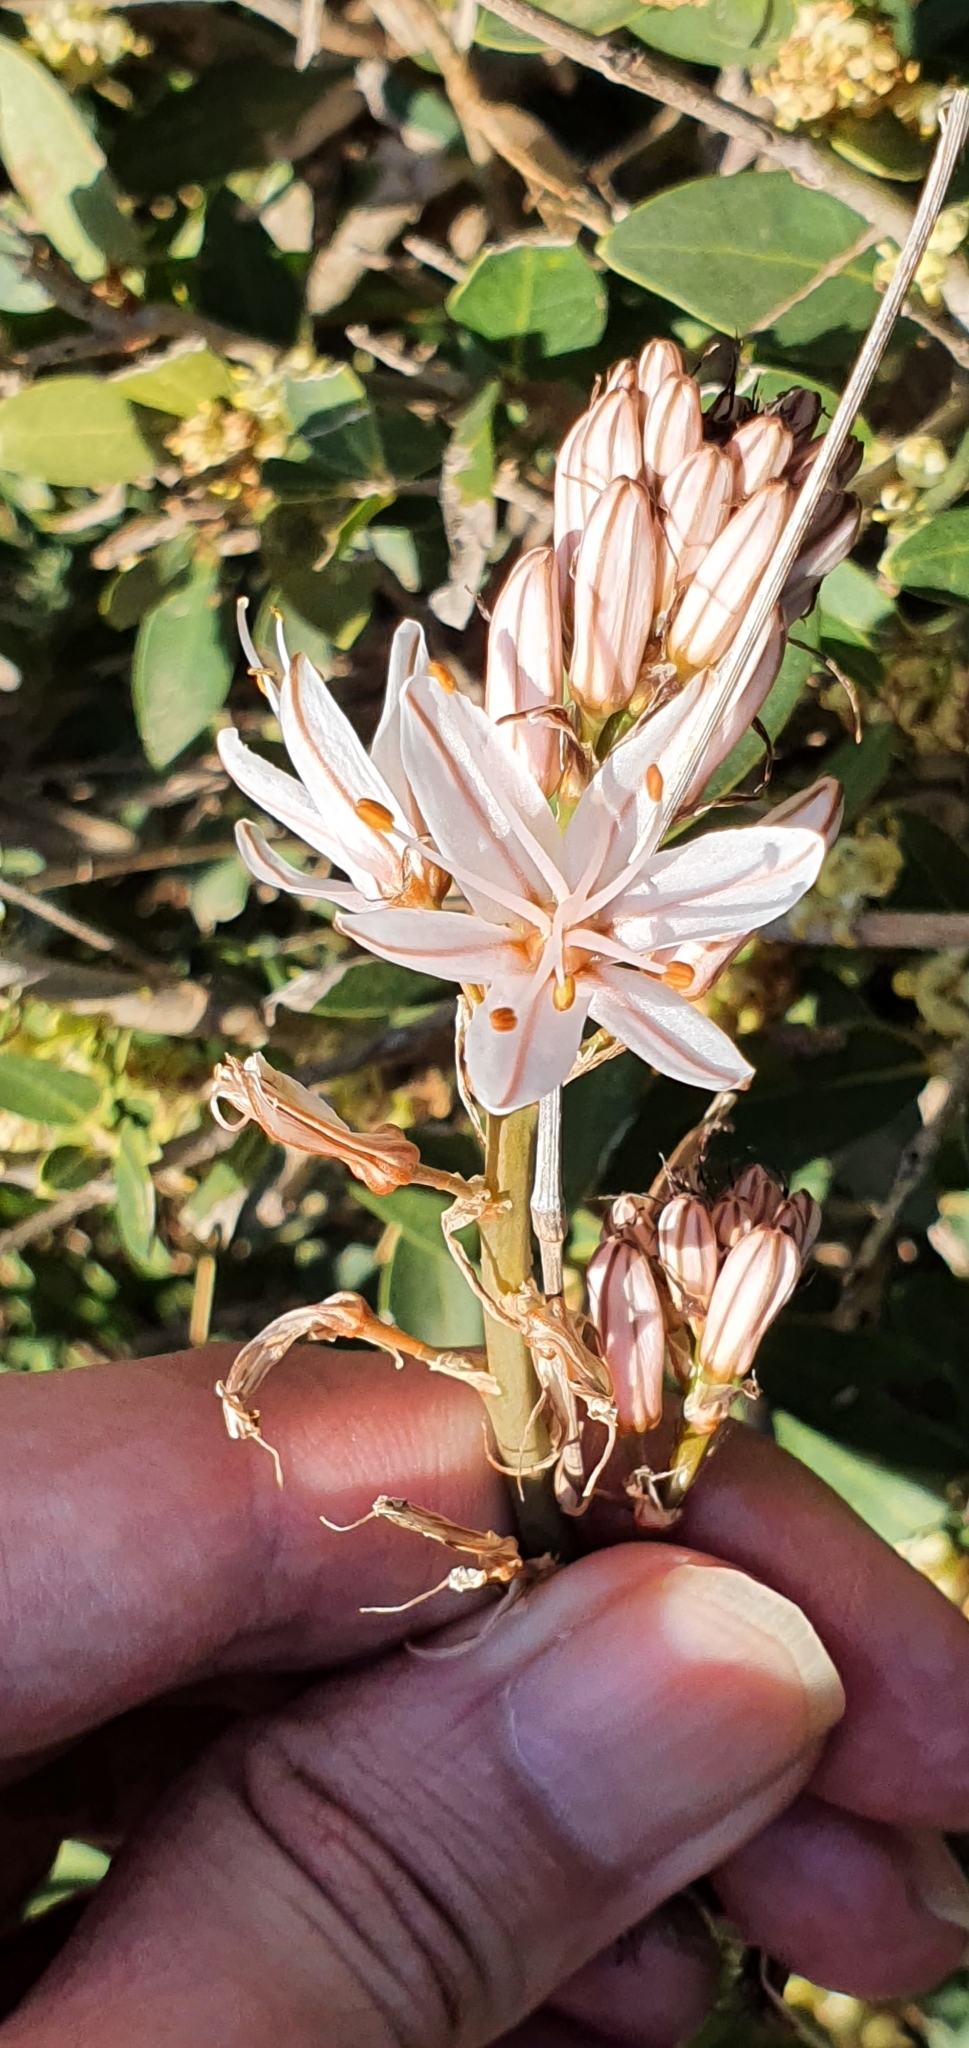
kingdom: Plantae
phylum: Tracheophyta
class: Liliopsida
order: Asparagales
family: Asphodelaceae
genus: Asphodelus
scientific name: Asphodelus ramosus
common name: Silverrod
